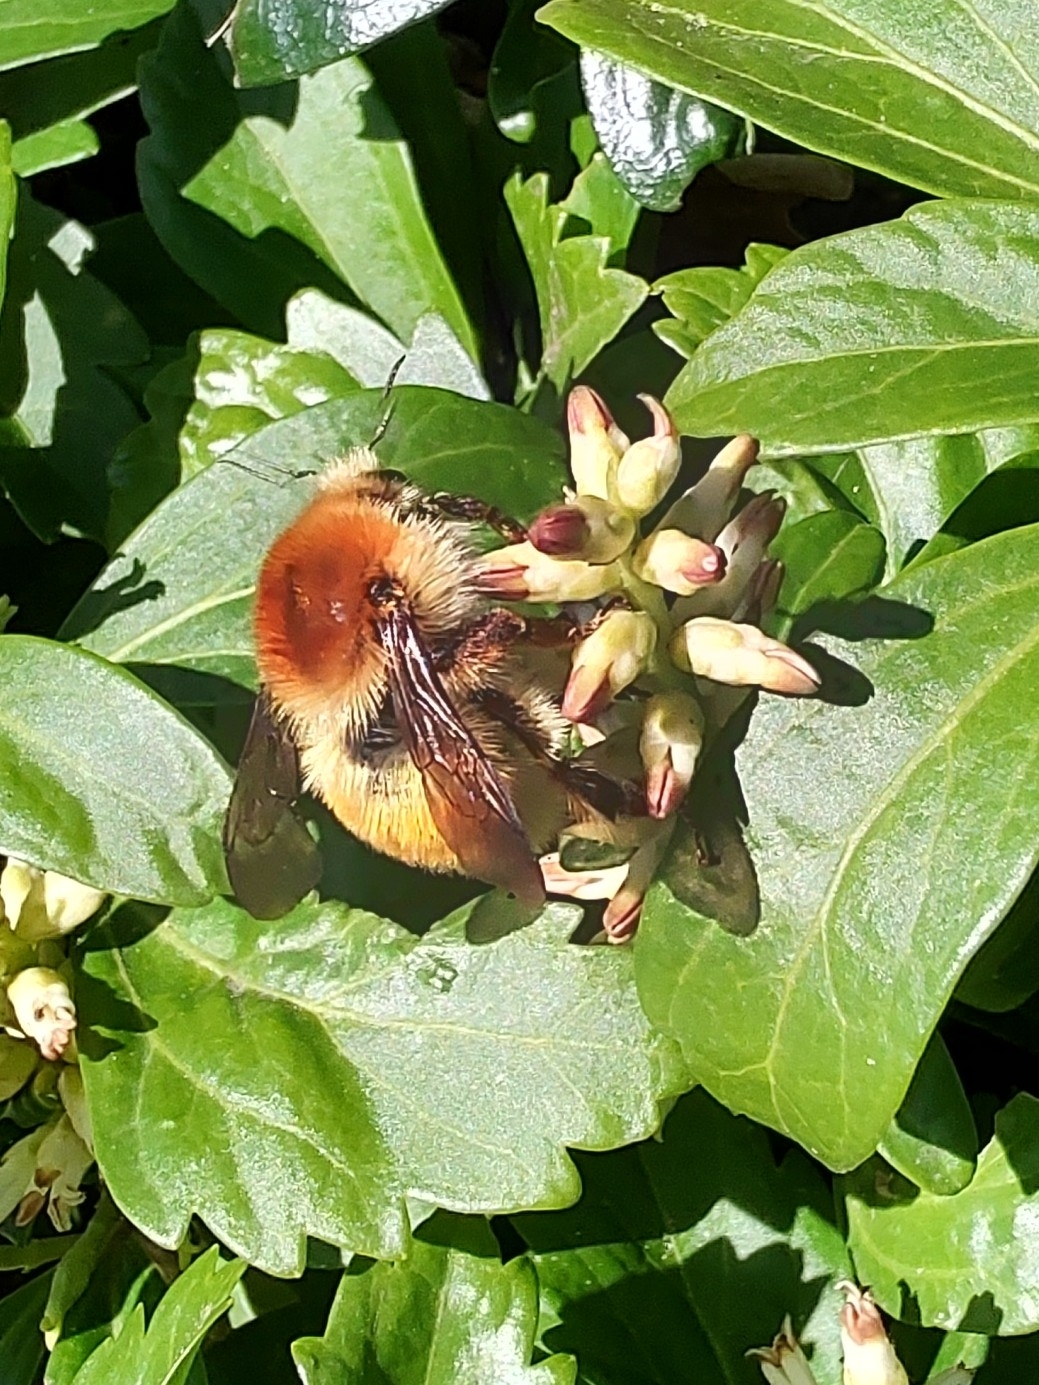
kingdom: Animalia
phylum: Arthropoda
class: Insecta
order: Hymenoptera
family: Apidae
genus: Bombus
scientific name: Bombus muscorum
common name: Moss carder-bee
